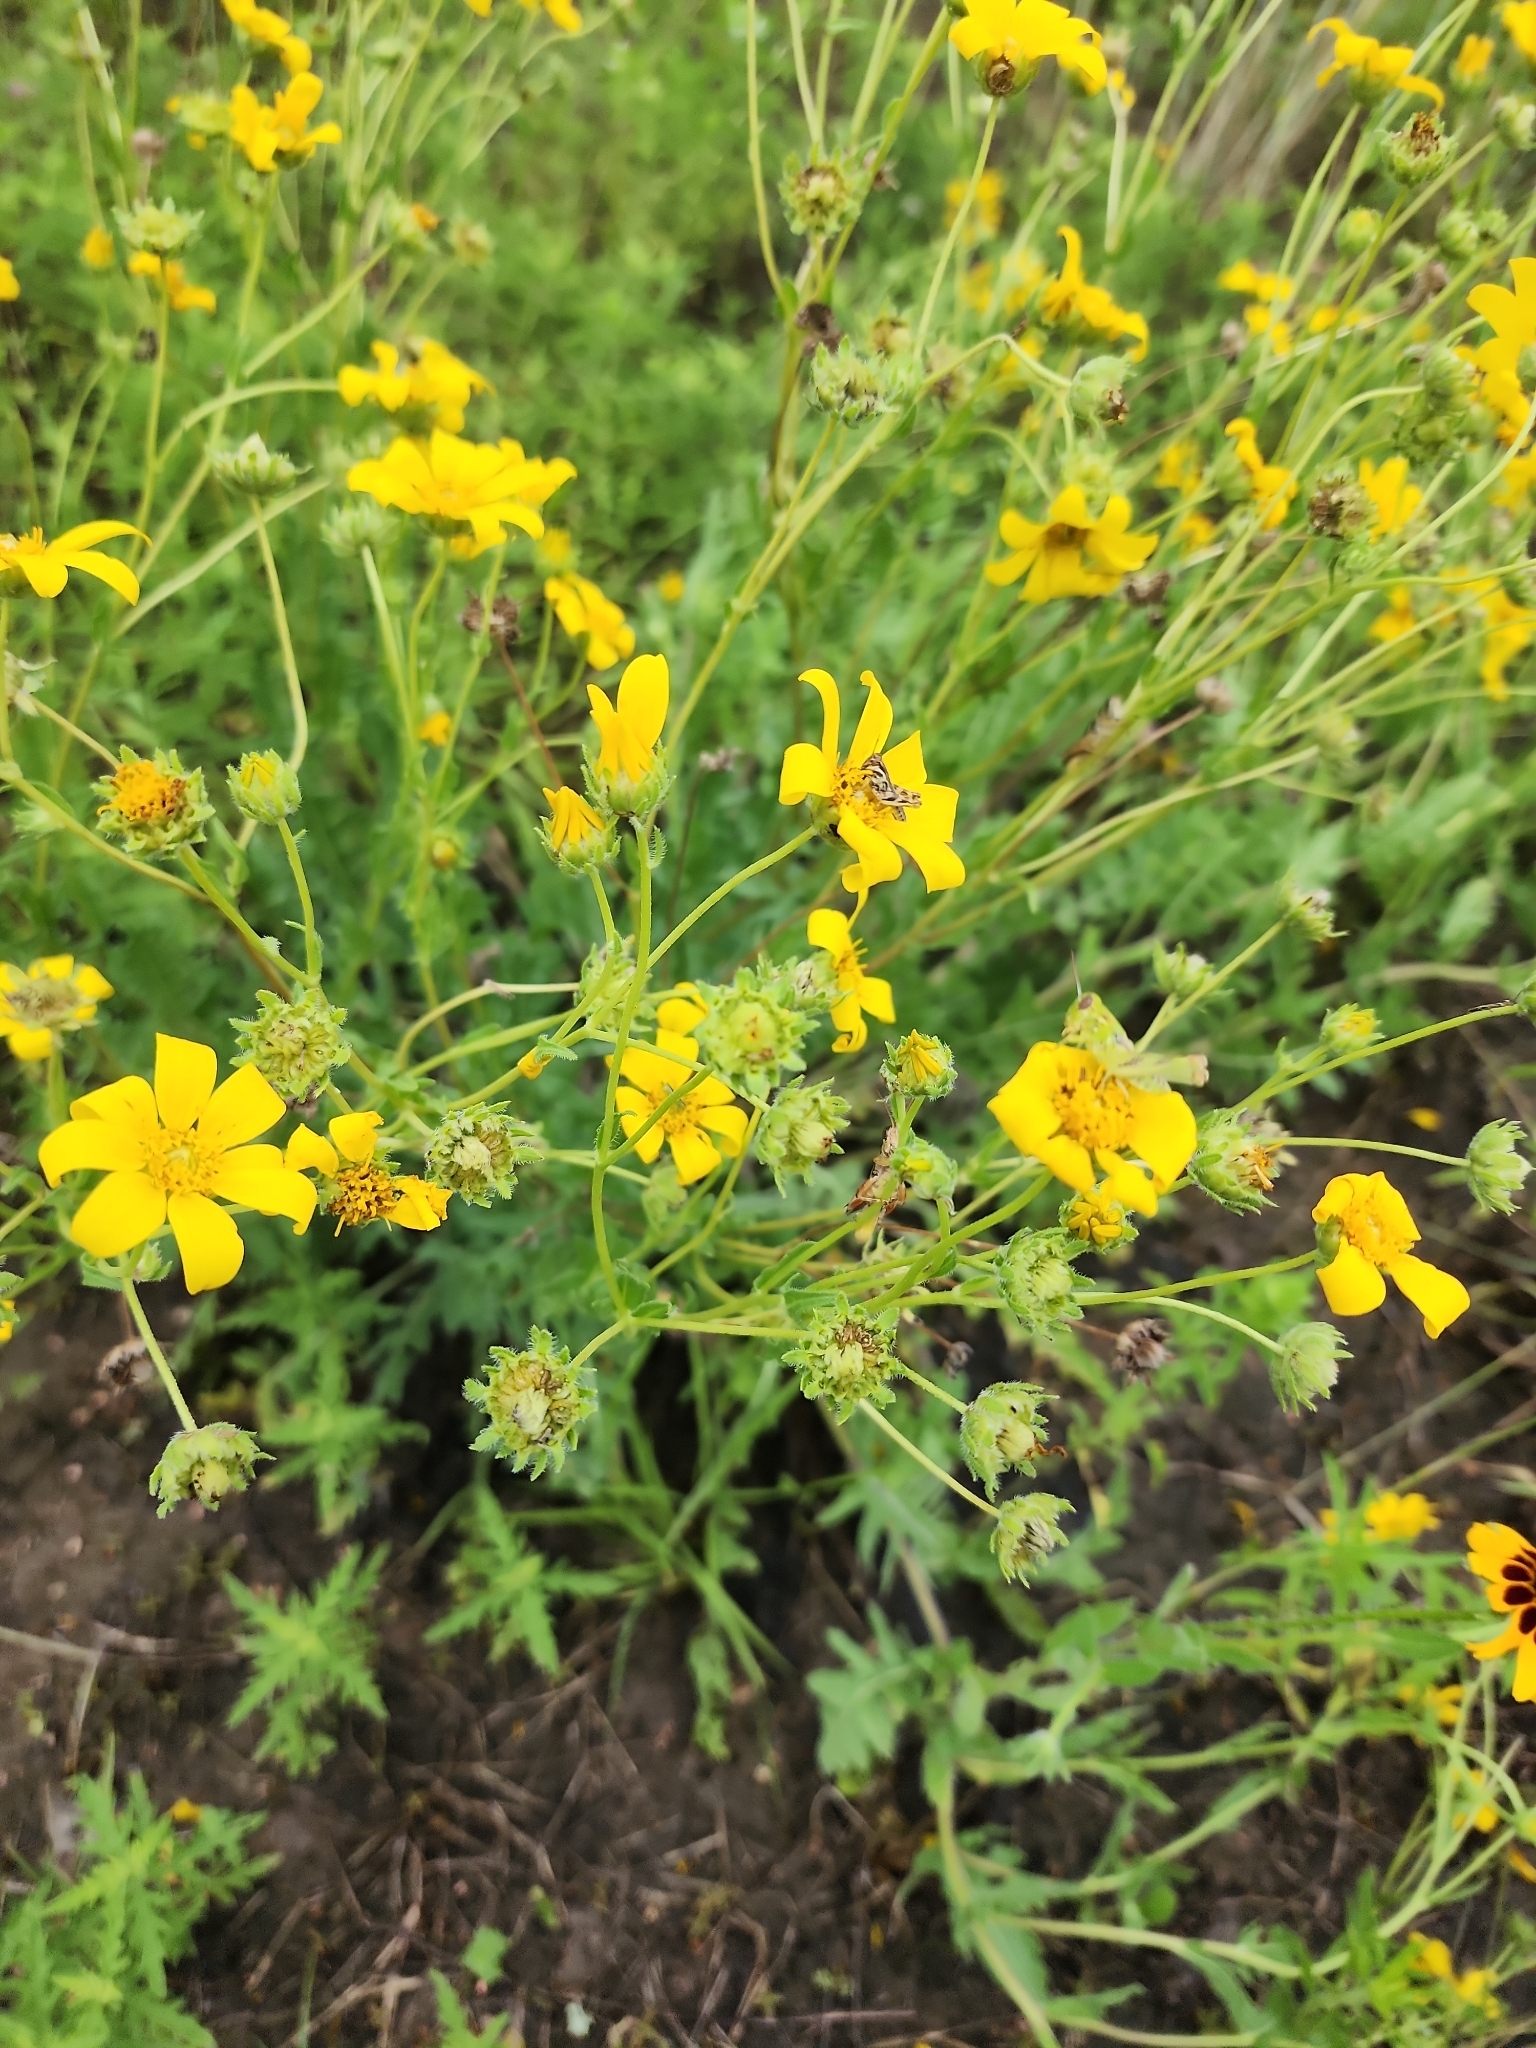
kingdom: Plantae
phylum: Tracheophyta
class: Magnoliopsida
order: Asterales
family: Asteraceae
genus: Engelmannia
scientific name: Engelmannia peristenia
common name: Engelmann's daisy
